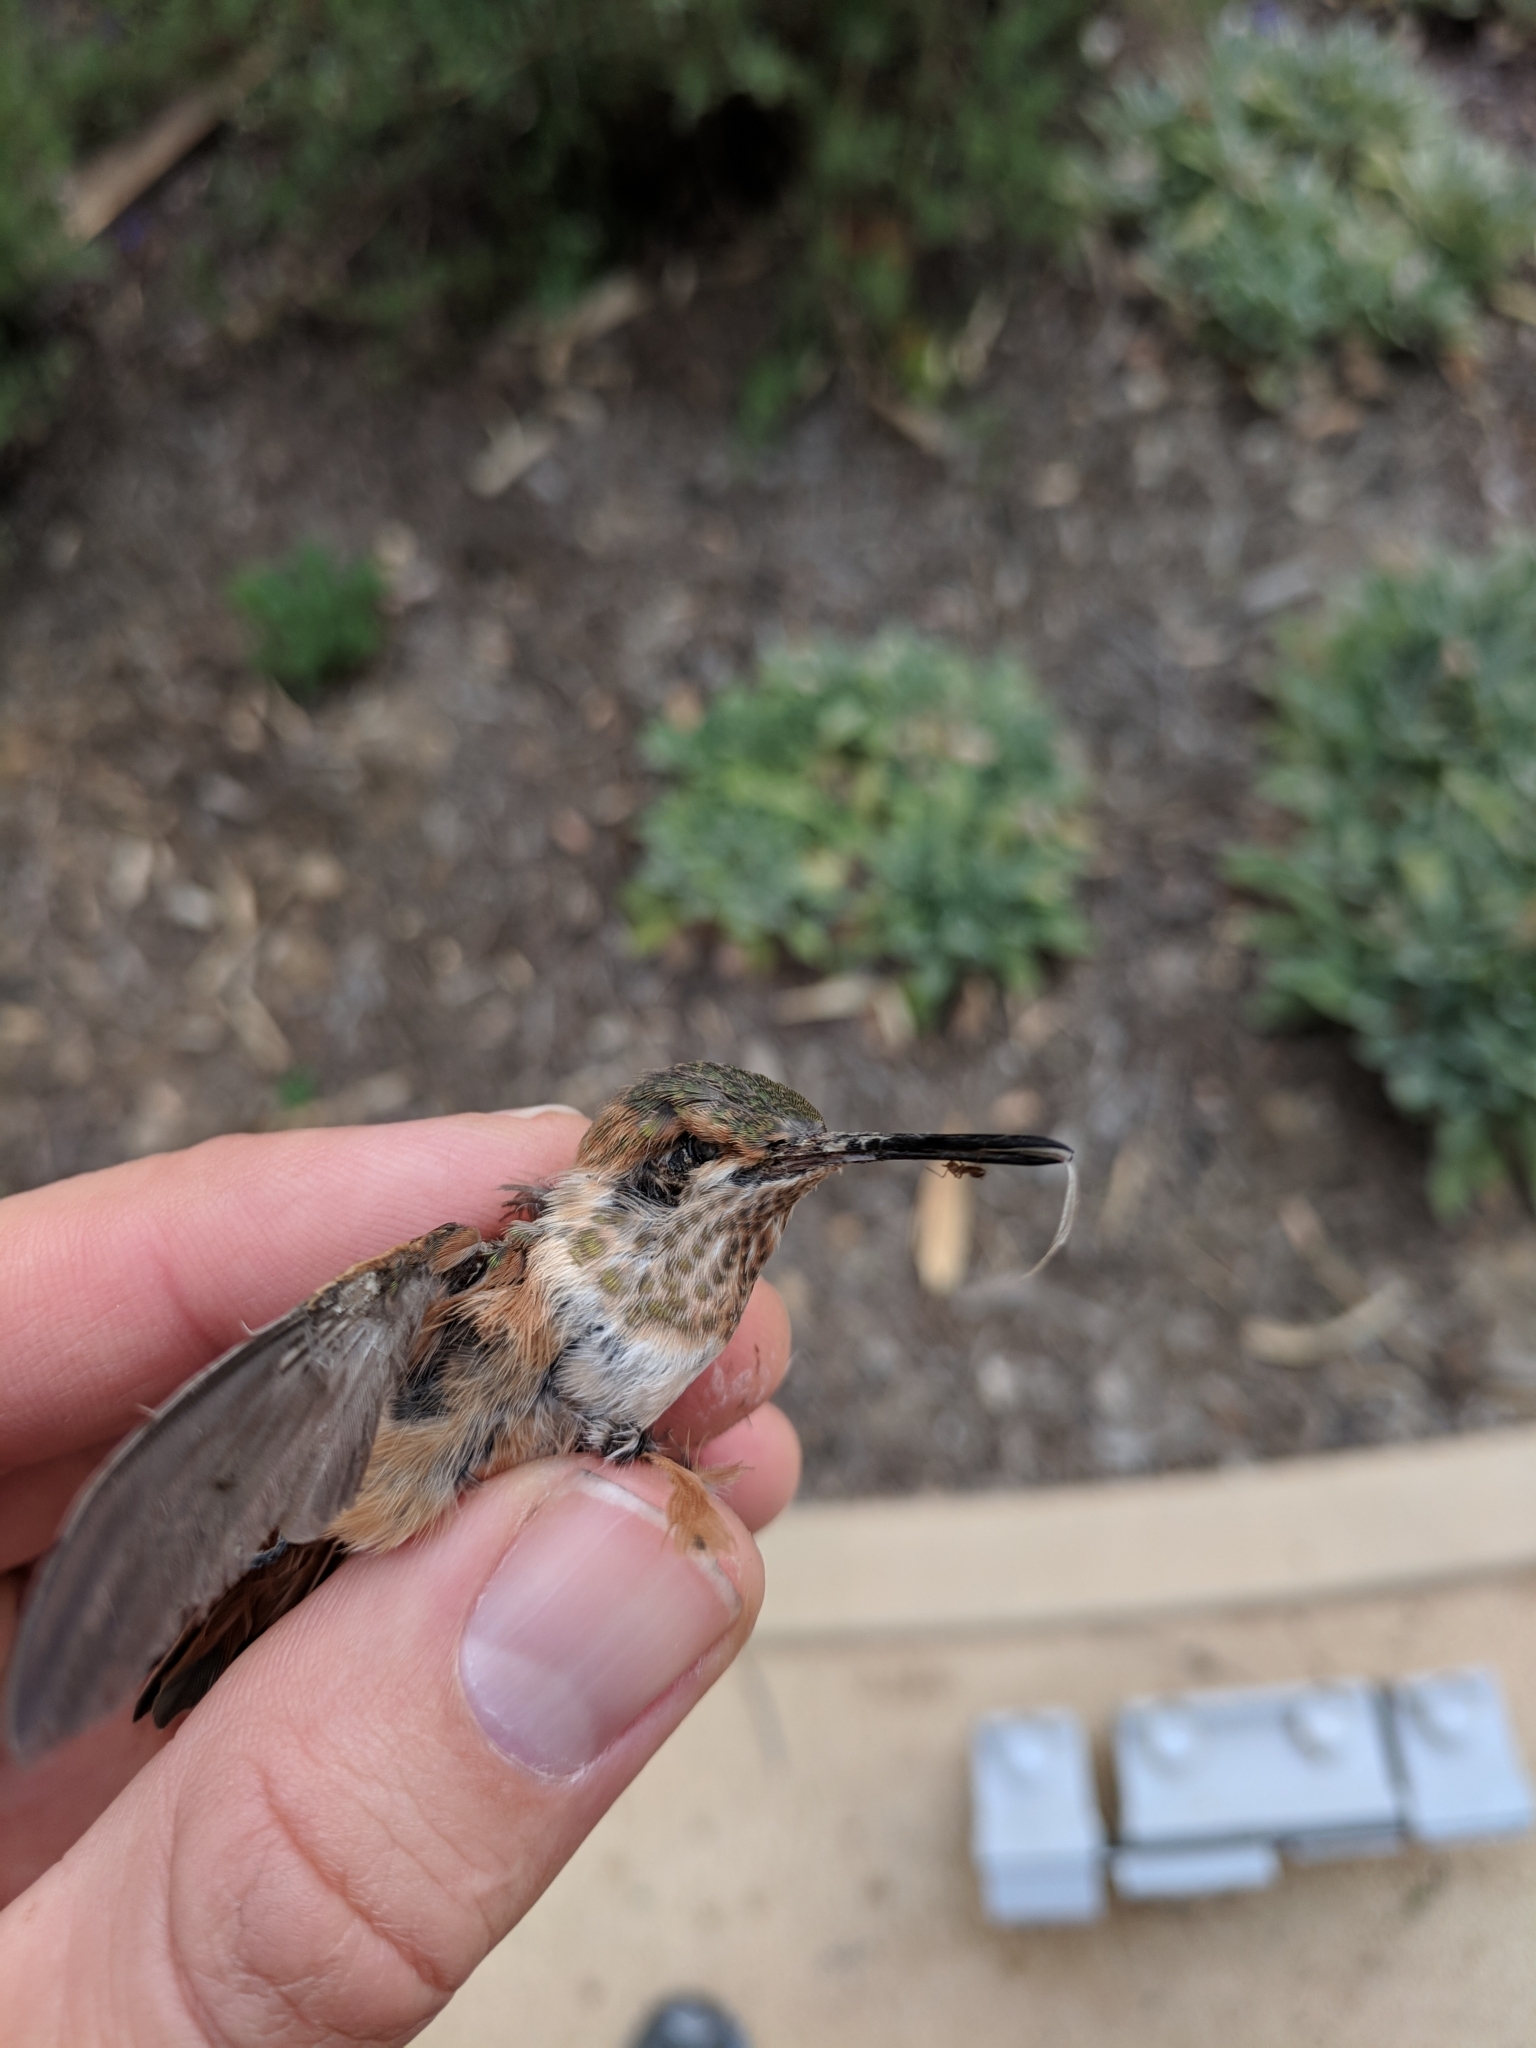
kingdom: Animalia
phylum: Chordata
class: Aves
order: Apodiformes
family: Trochilidae
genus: Selasphorus
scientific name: Selasphorus sasin
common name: Allen's hummingbird
